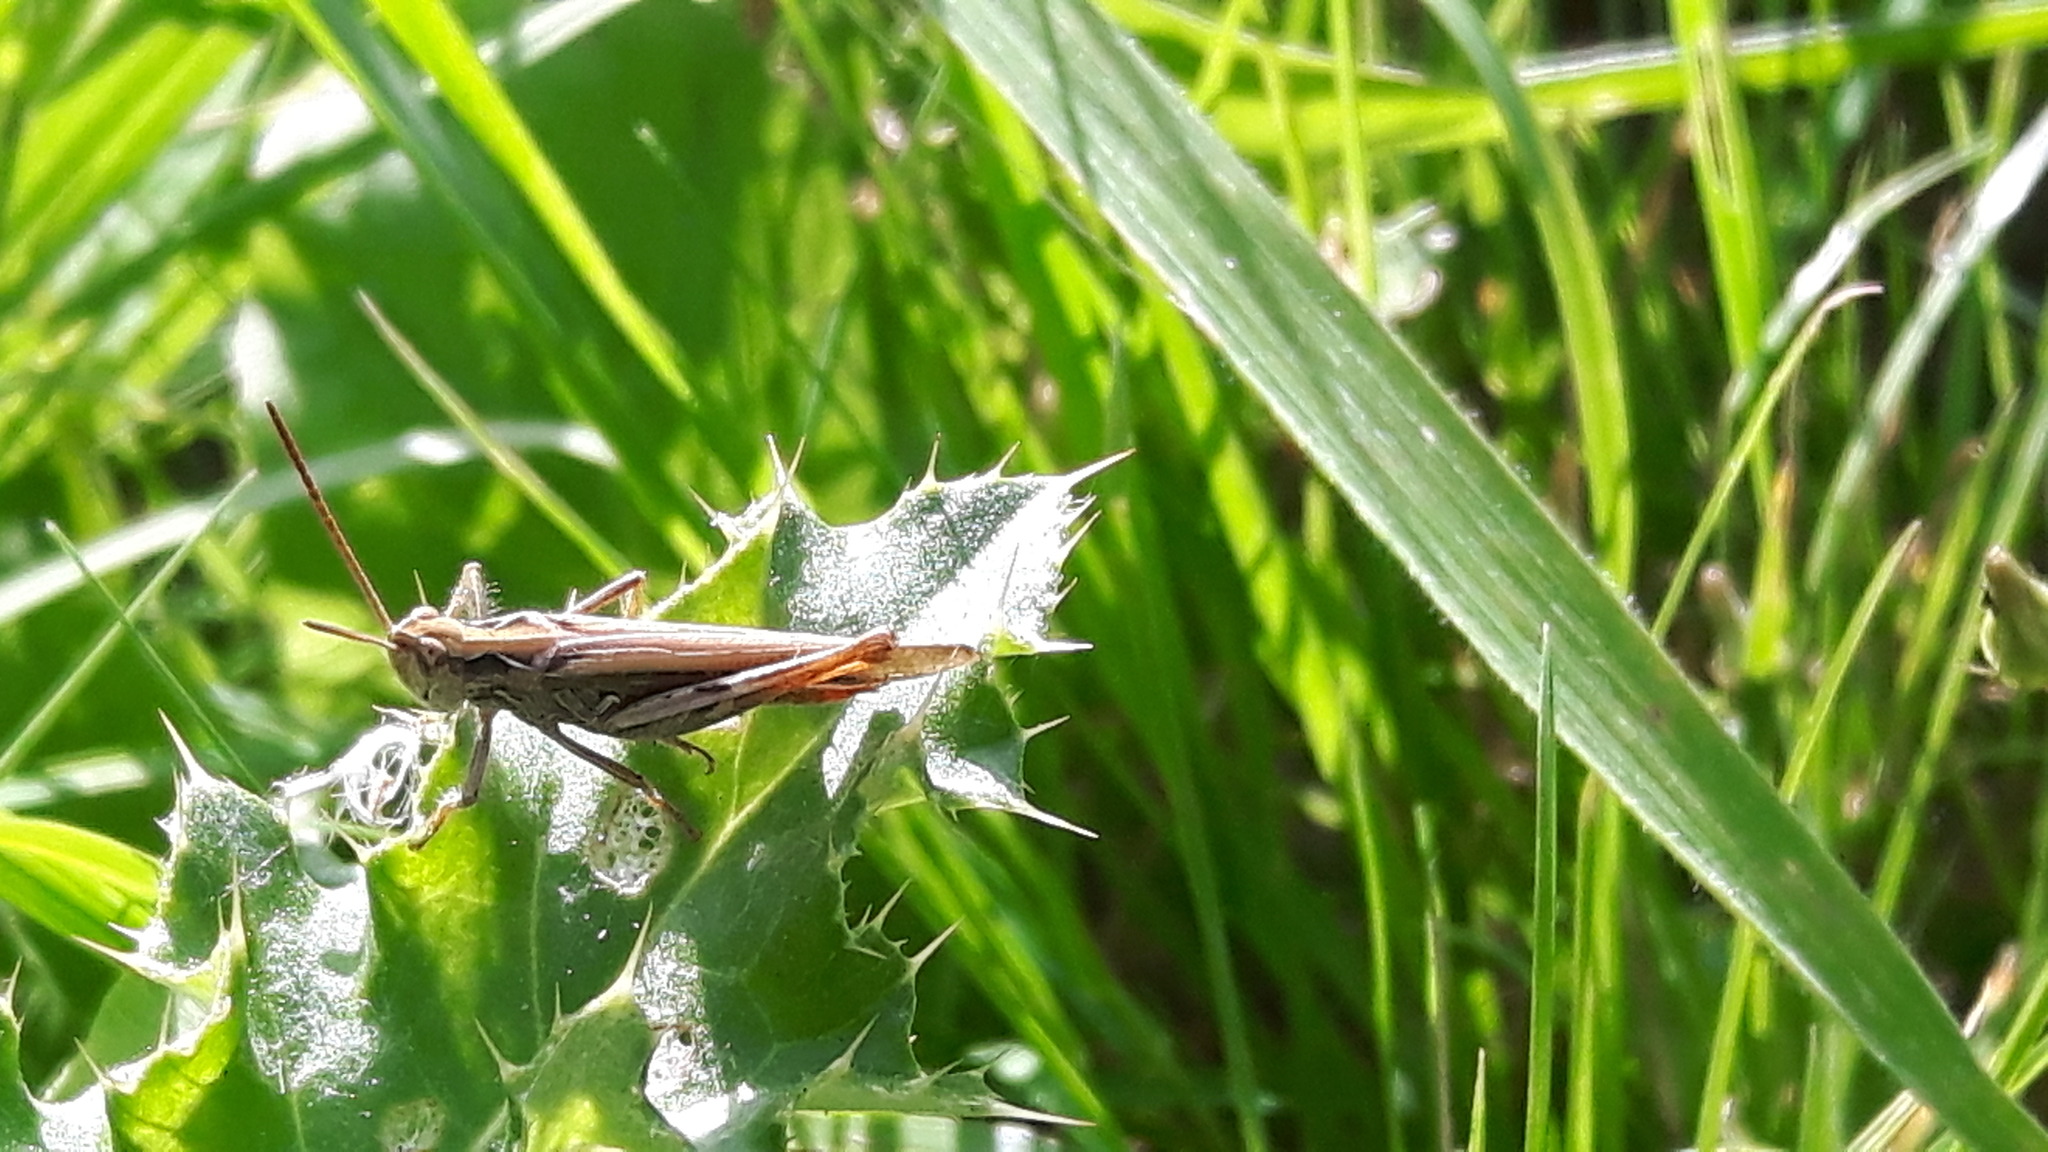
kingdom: Animalia
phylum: Arthropoda
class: Insecta
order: Orthoptera
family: Acrididae
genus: Chorthippus
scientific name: Chorthippus brunneus
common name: Field grasshopper
